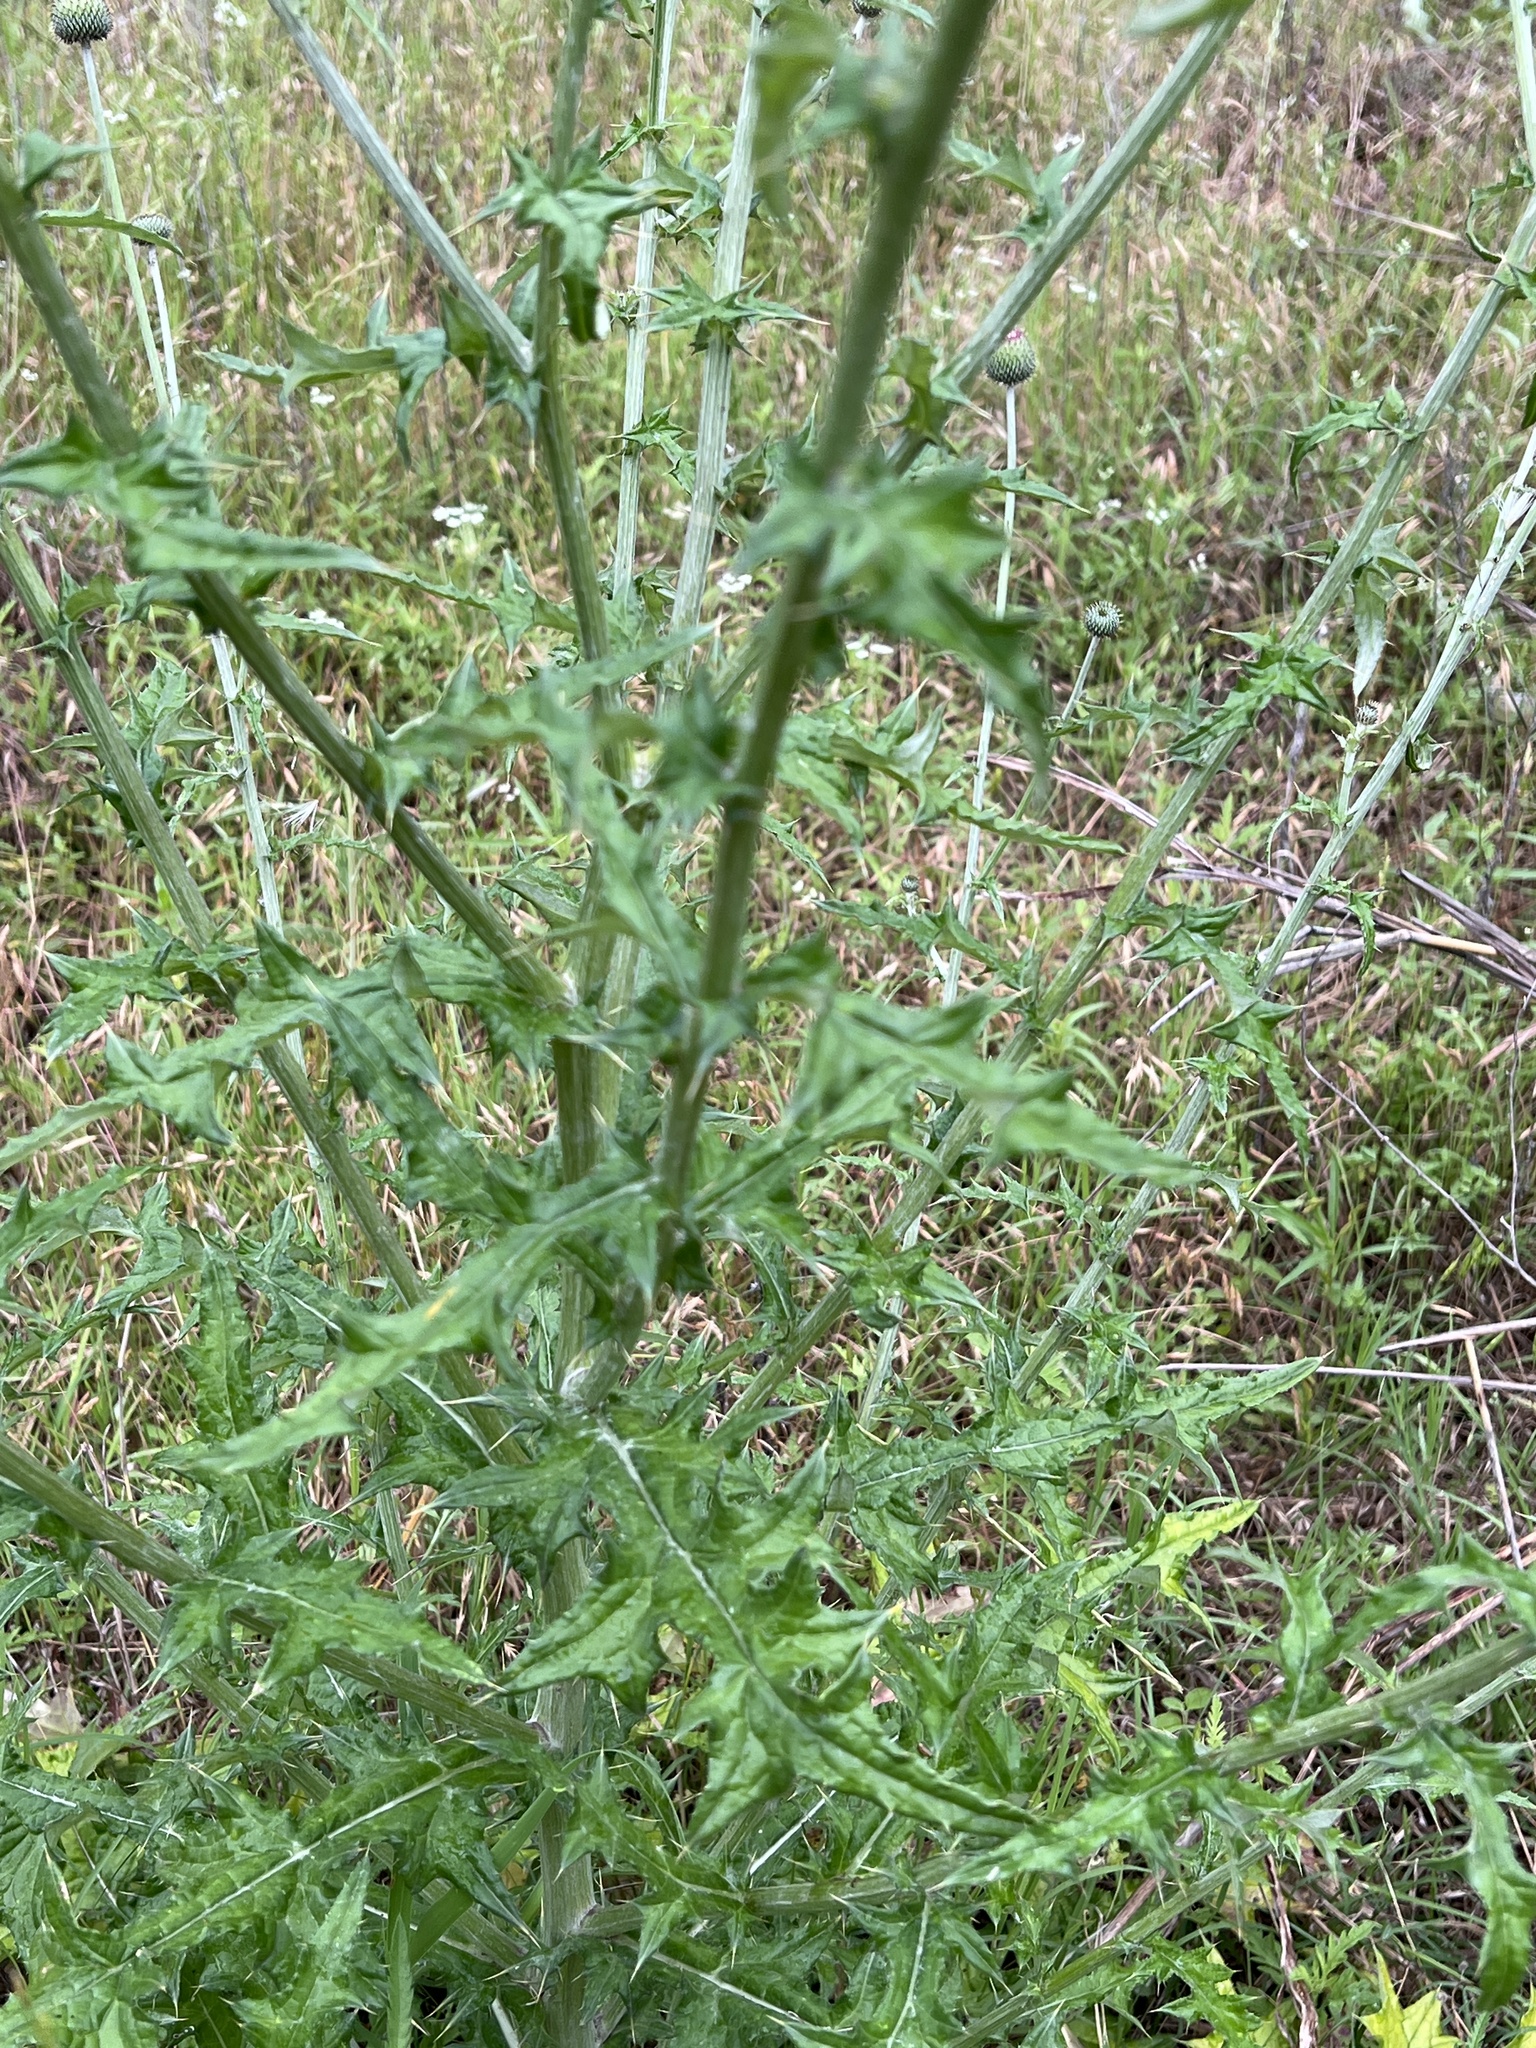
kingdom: Plantae
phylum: Tracheophyta
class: Magnoliopsida
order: Asterales
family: Asteraceae
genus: Cirsium
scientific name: Cirsium texanum
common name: Texas purple thistle
